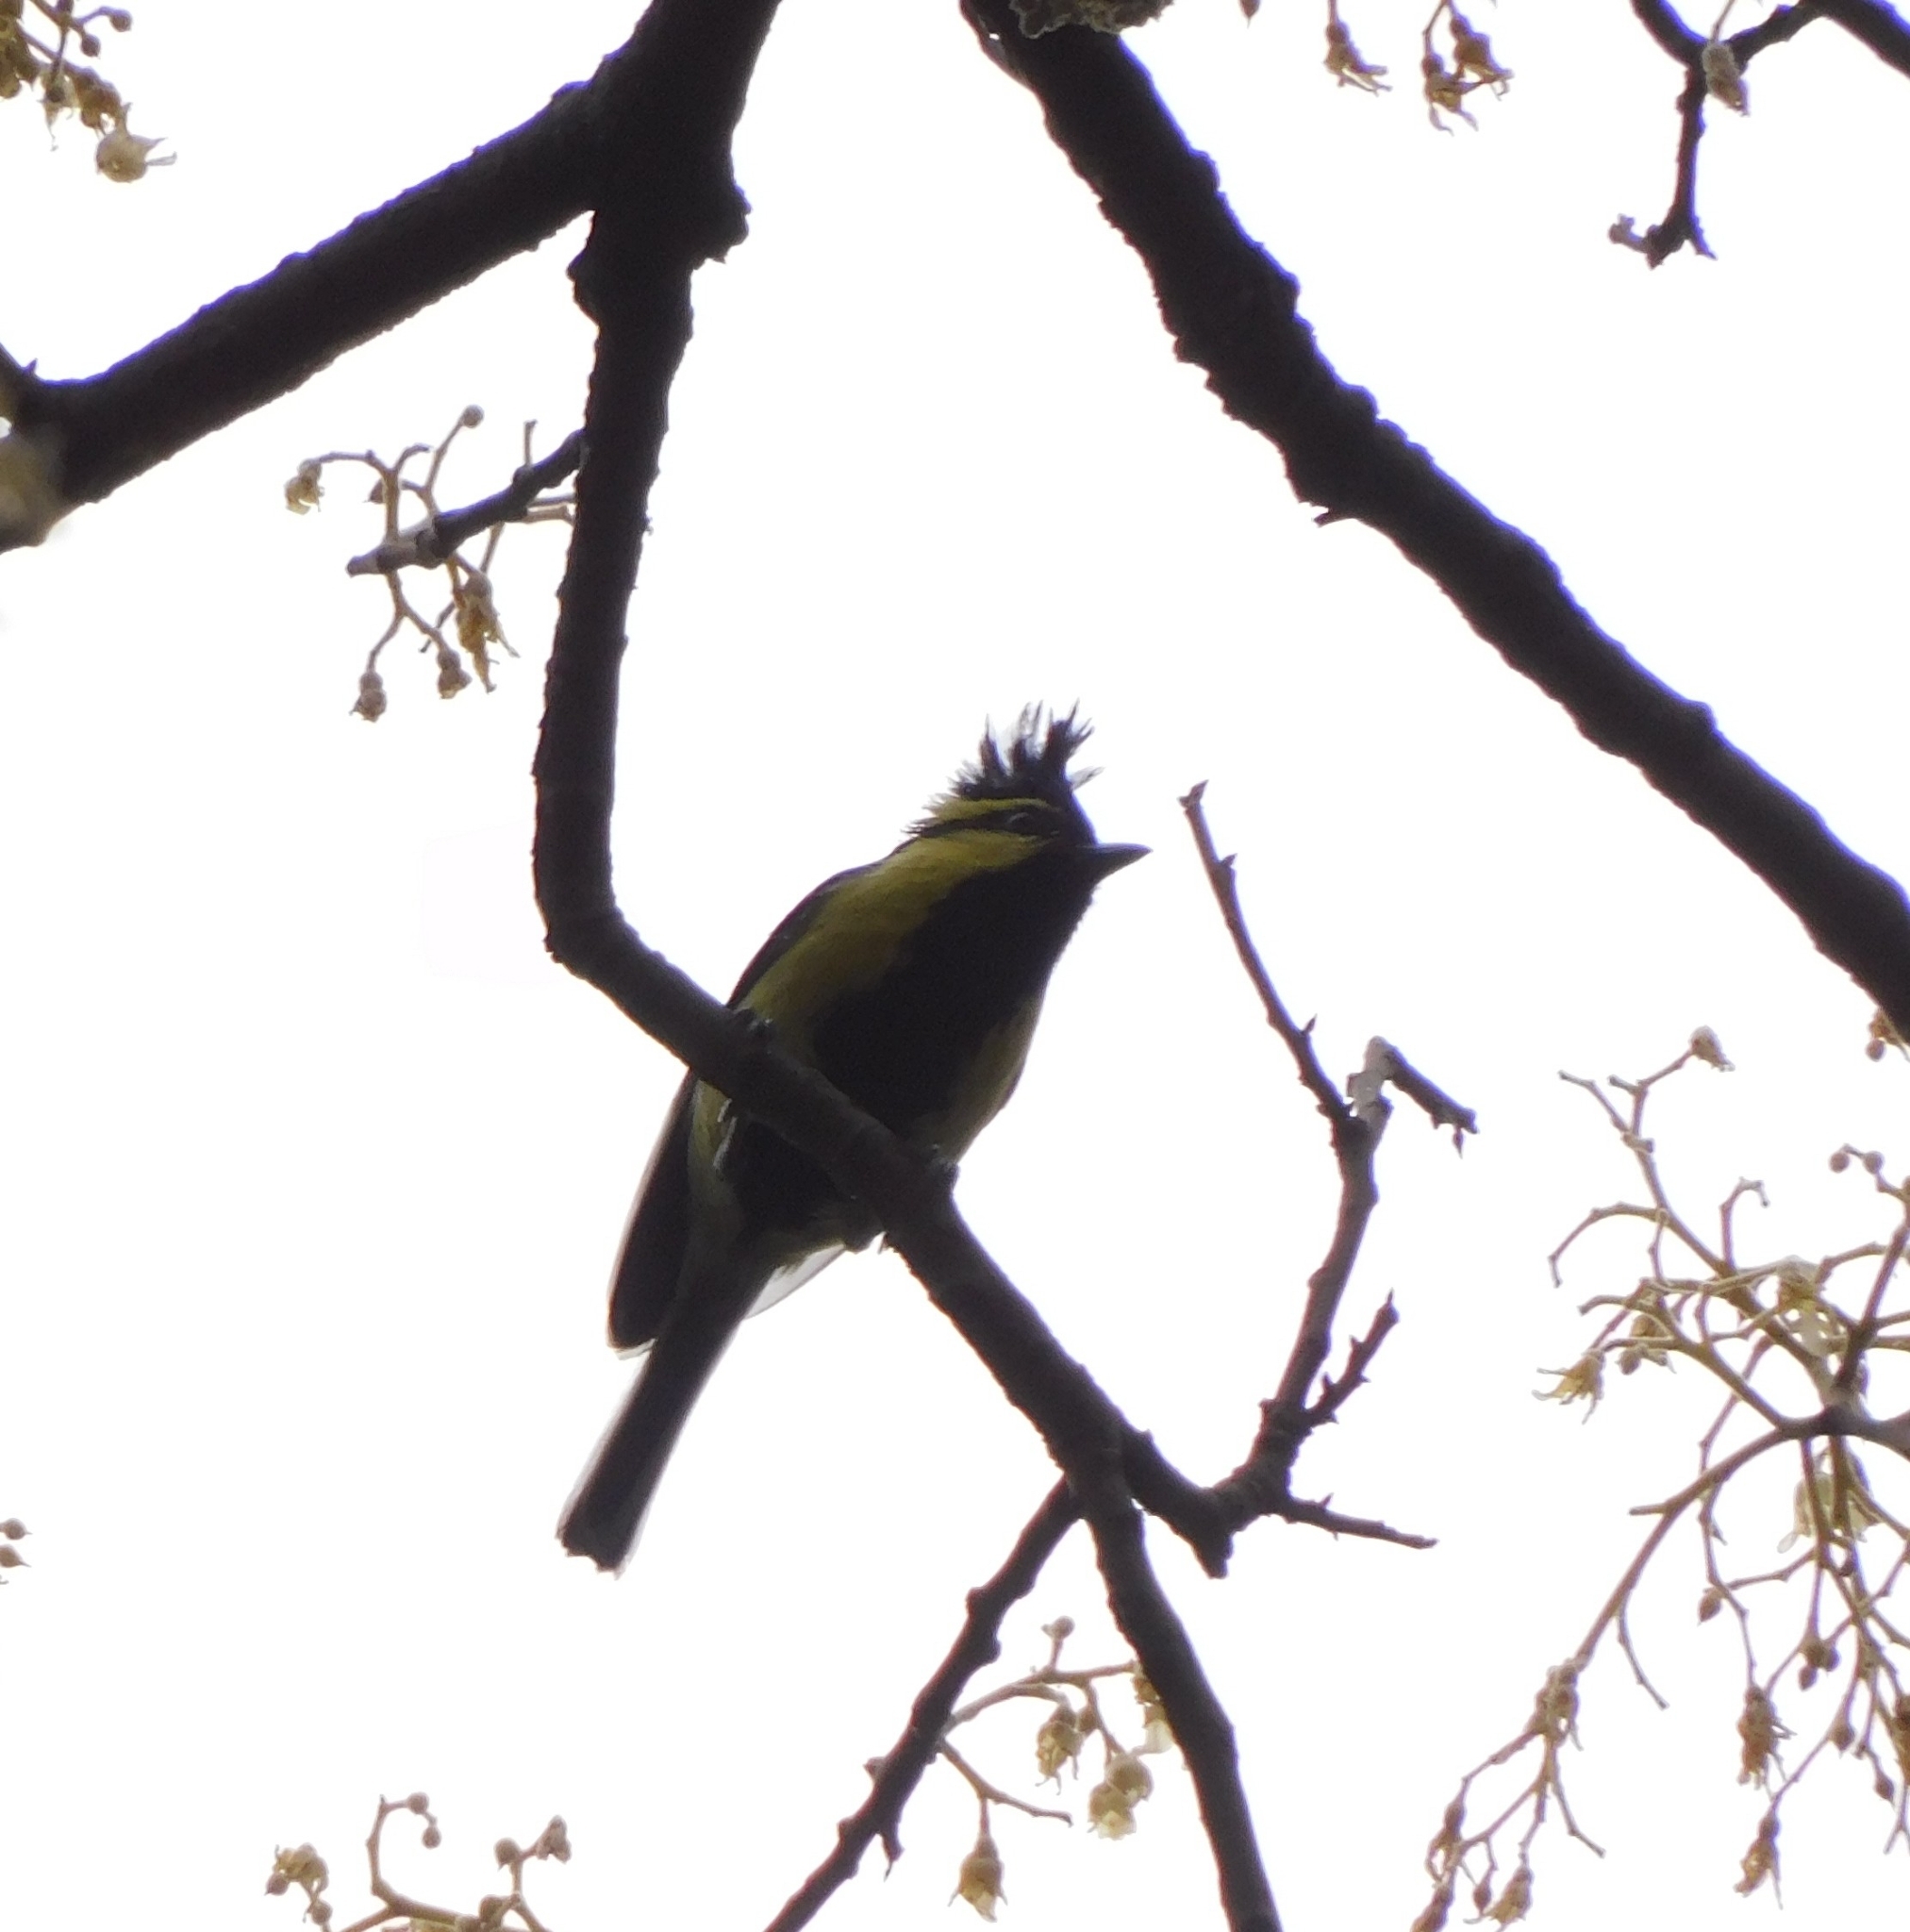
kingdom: Animalia
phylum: Chordata
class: Aves
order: Passeriformes
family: Paridae
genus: Parus
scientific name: Parus xanthogenys
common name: Black-lored tit
